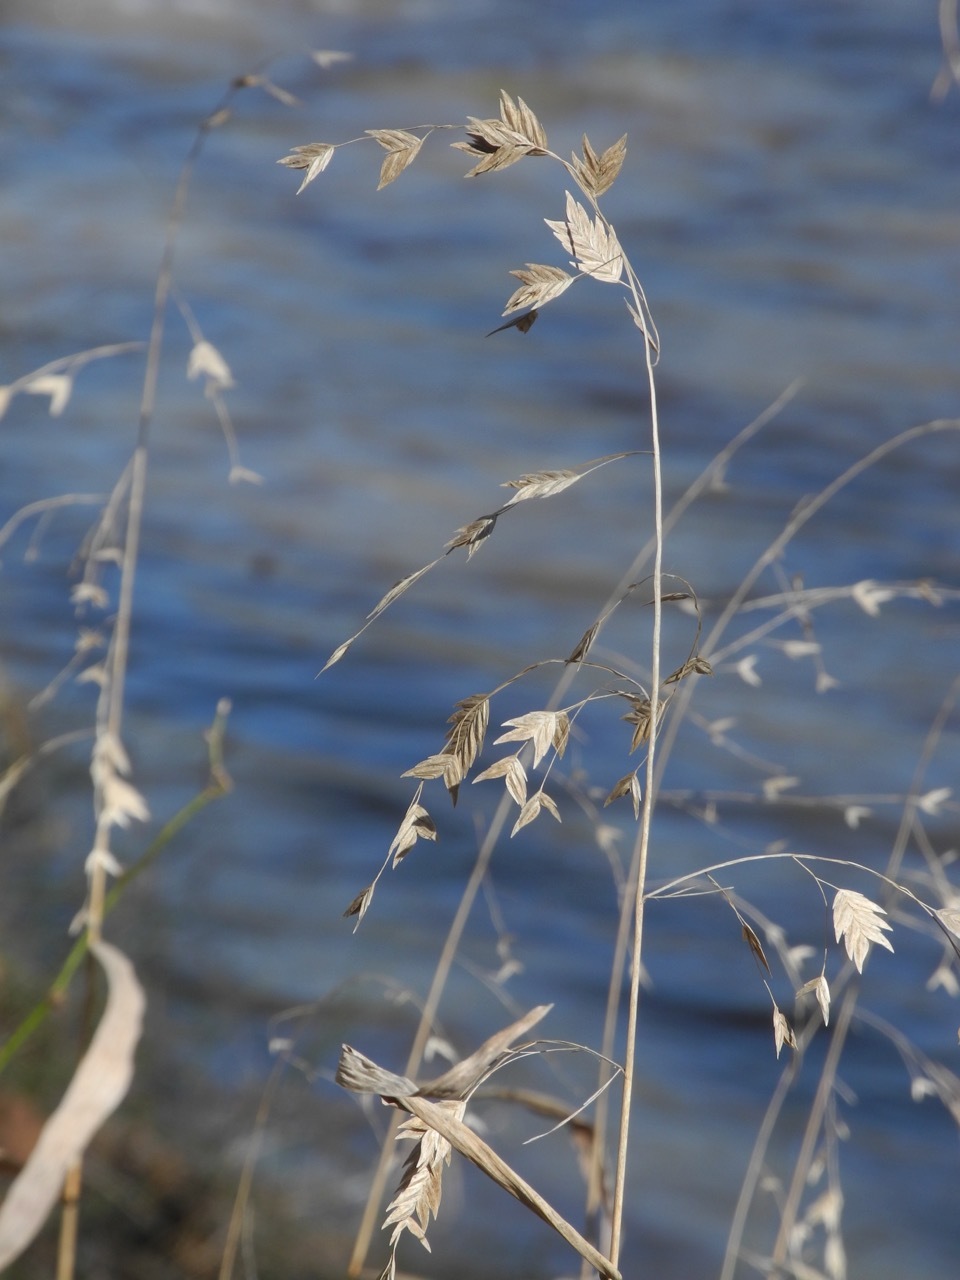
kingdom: Plantae
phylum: Tracheophyta
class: Liliopsida
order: Poales
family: Poaceae
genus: Chasmanthium
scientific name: Chasmanthium latifolium
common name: Broad-leaved chasmanthium
